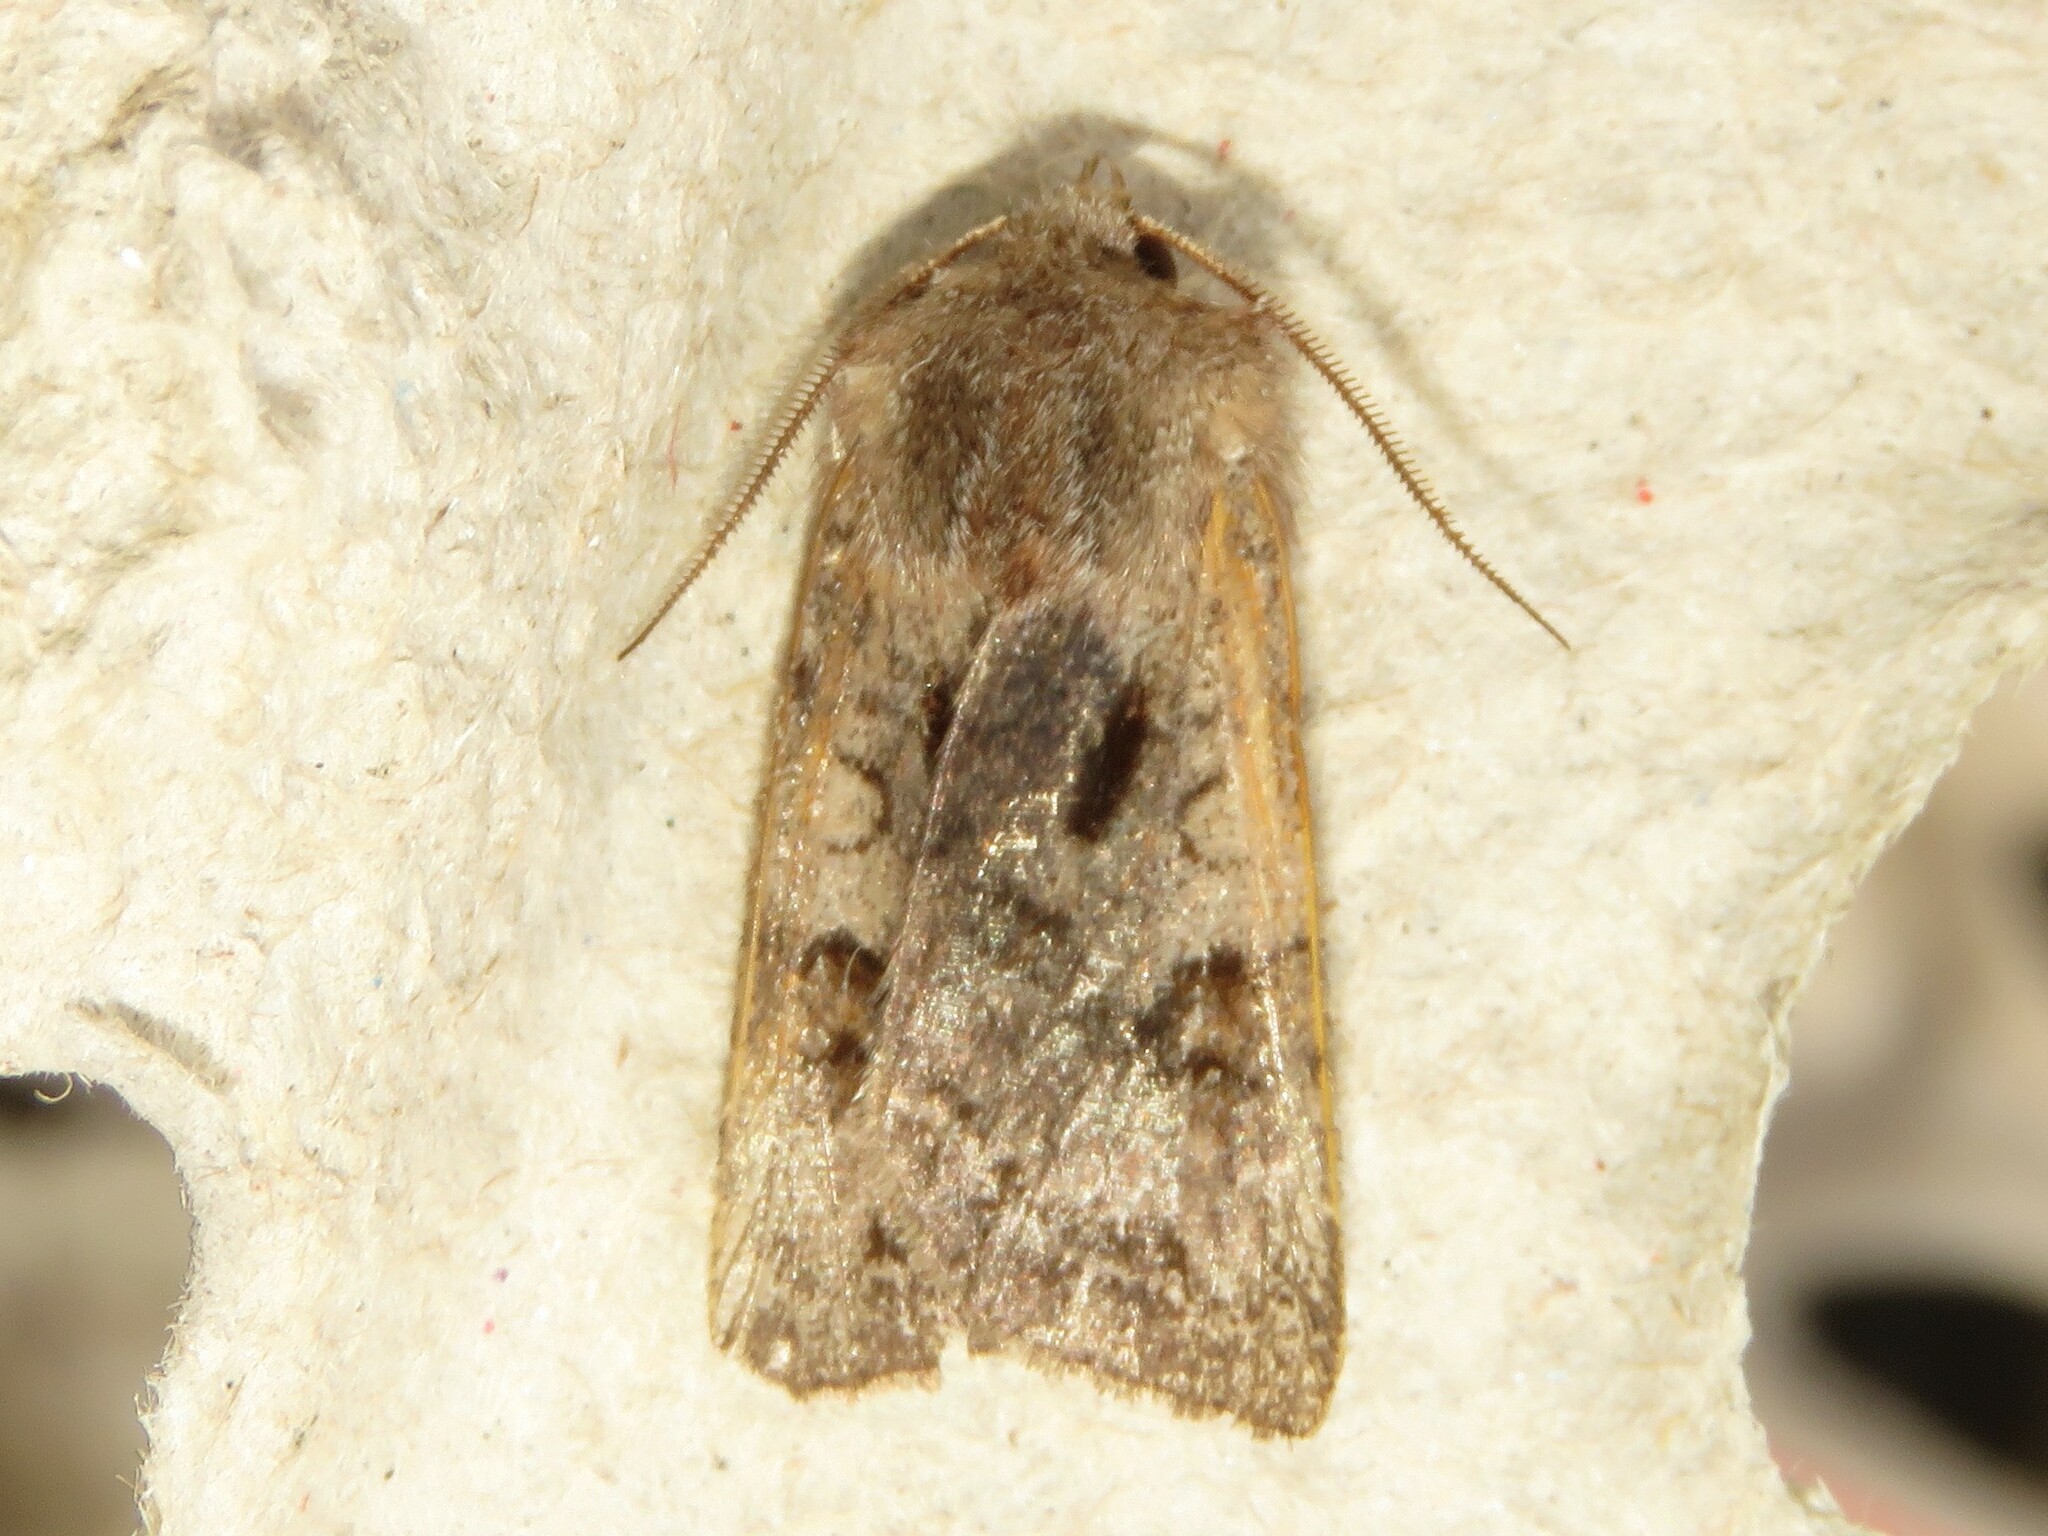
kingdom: Animalia
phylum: Arthropoda
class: Insecta
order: Lepidoptera
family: Noctuidae
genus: Cerastis
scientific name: Cerastis salicarum
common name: Willow dart
